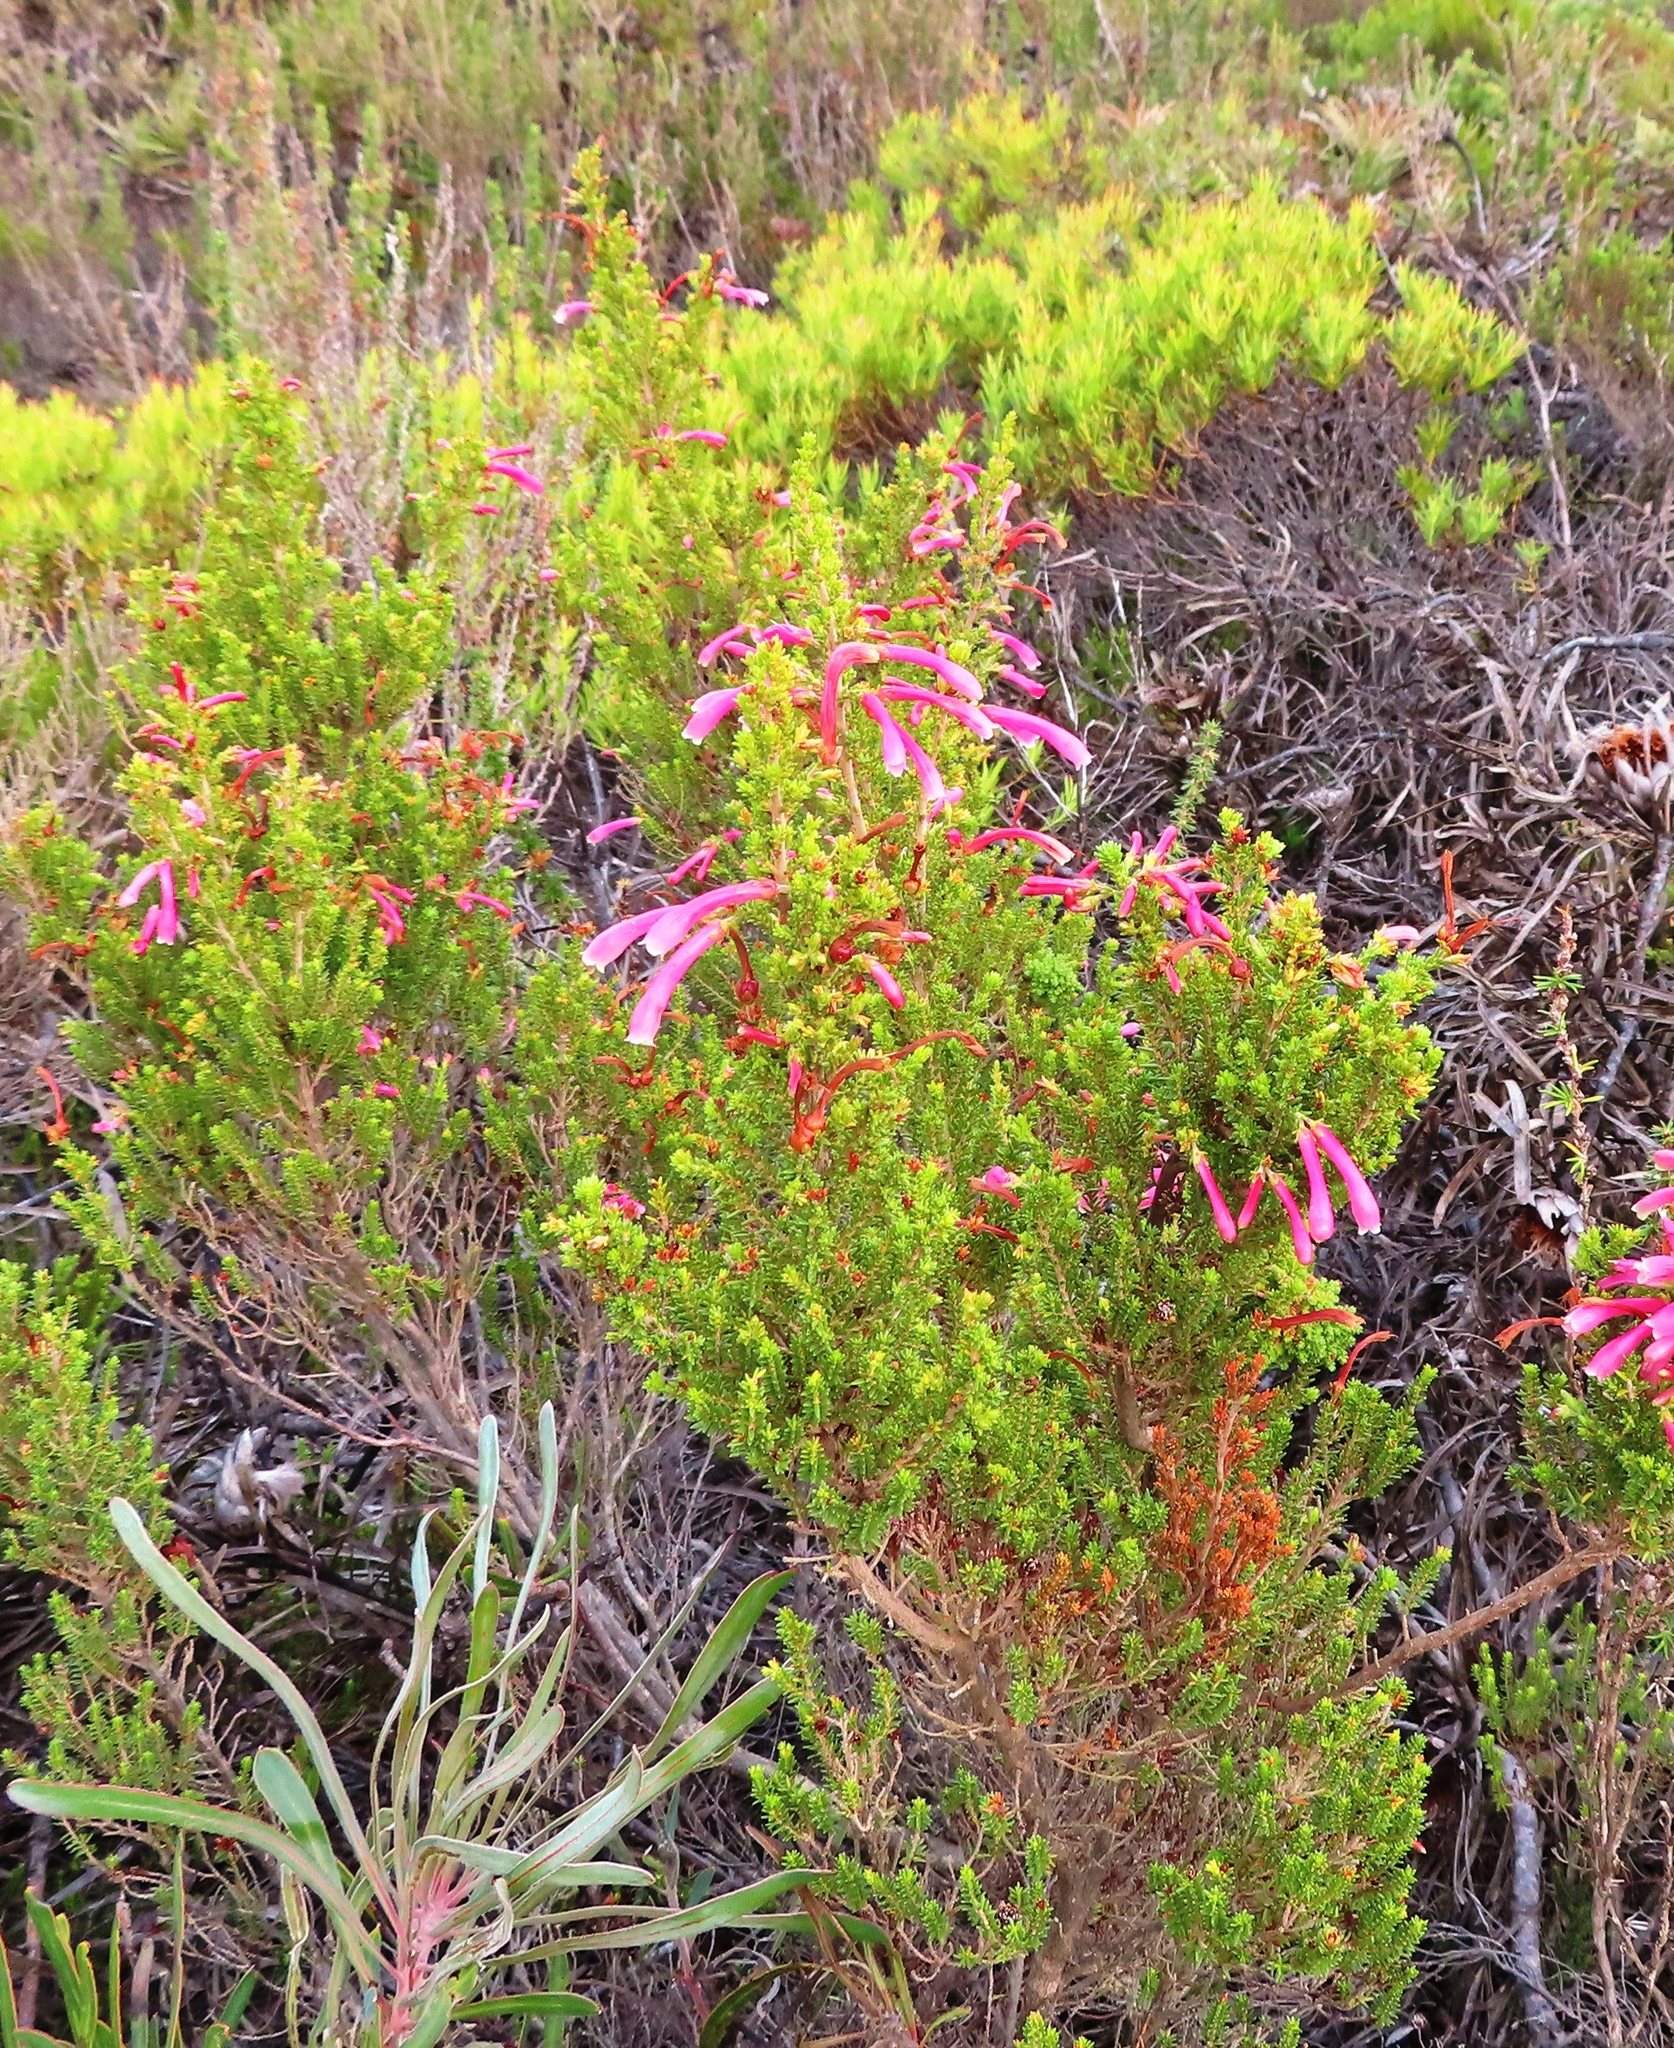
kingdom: Plantae
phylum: Tracheophyta
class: Magnoliopsida
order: Ericales
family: Ericaceae
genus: Erica
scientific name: Erica discolor
